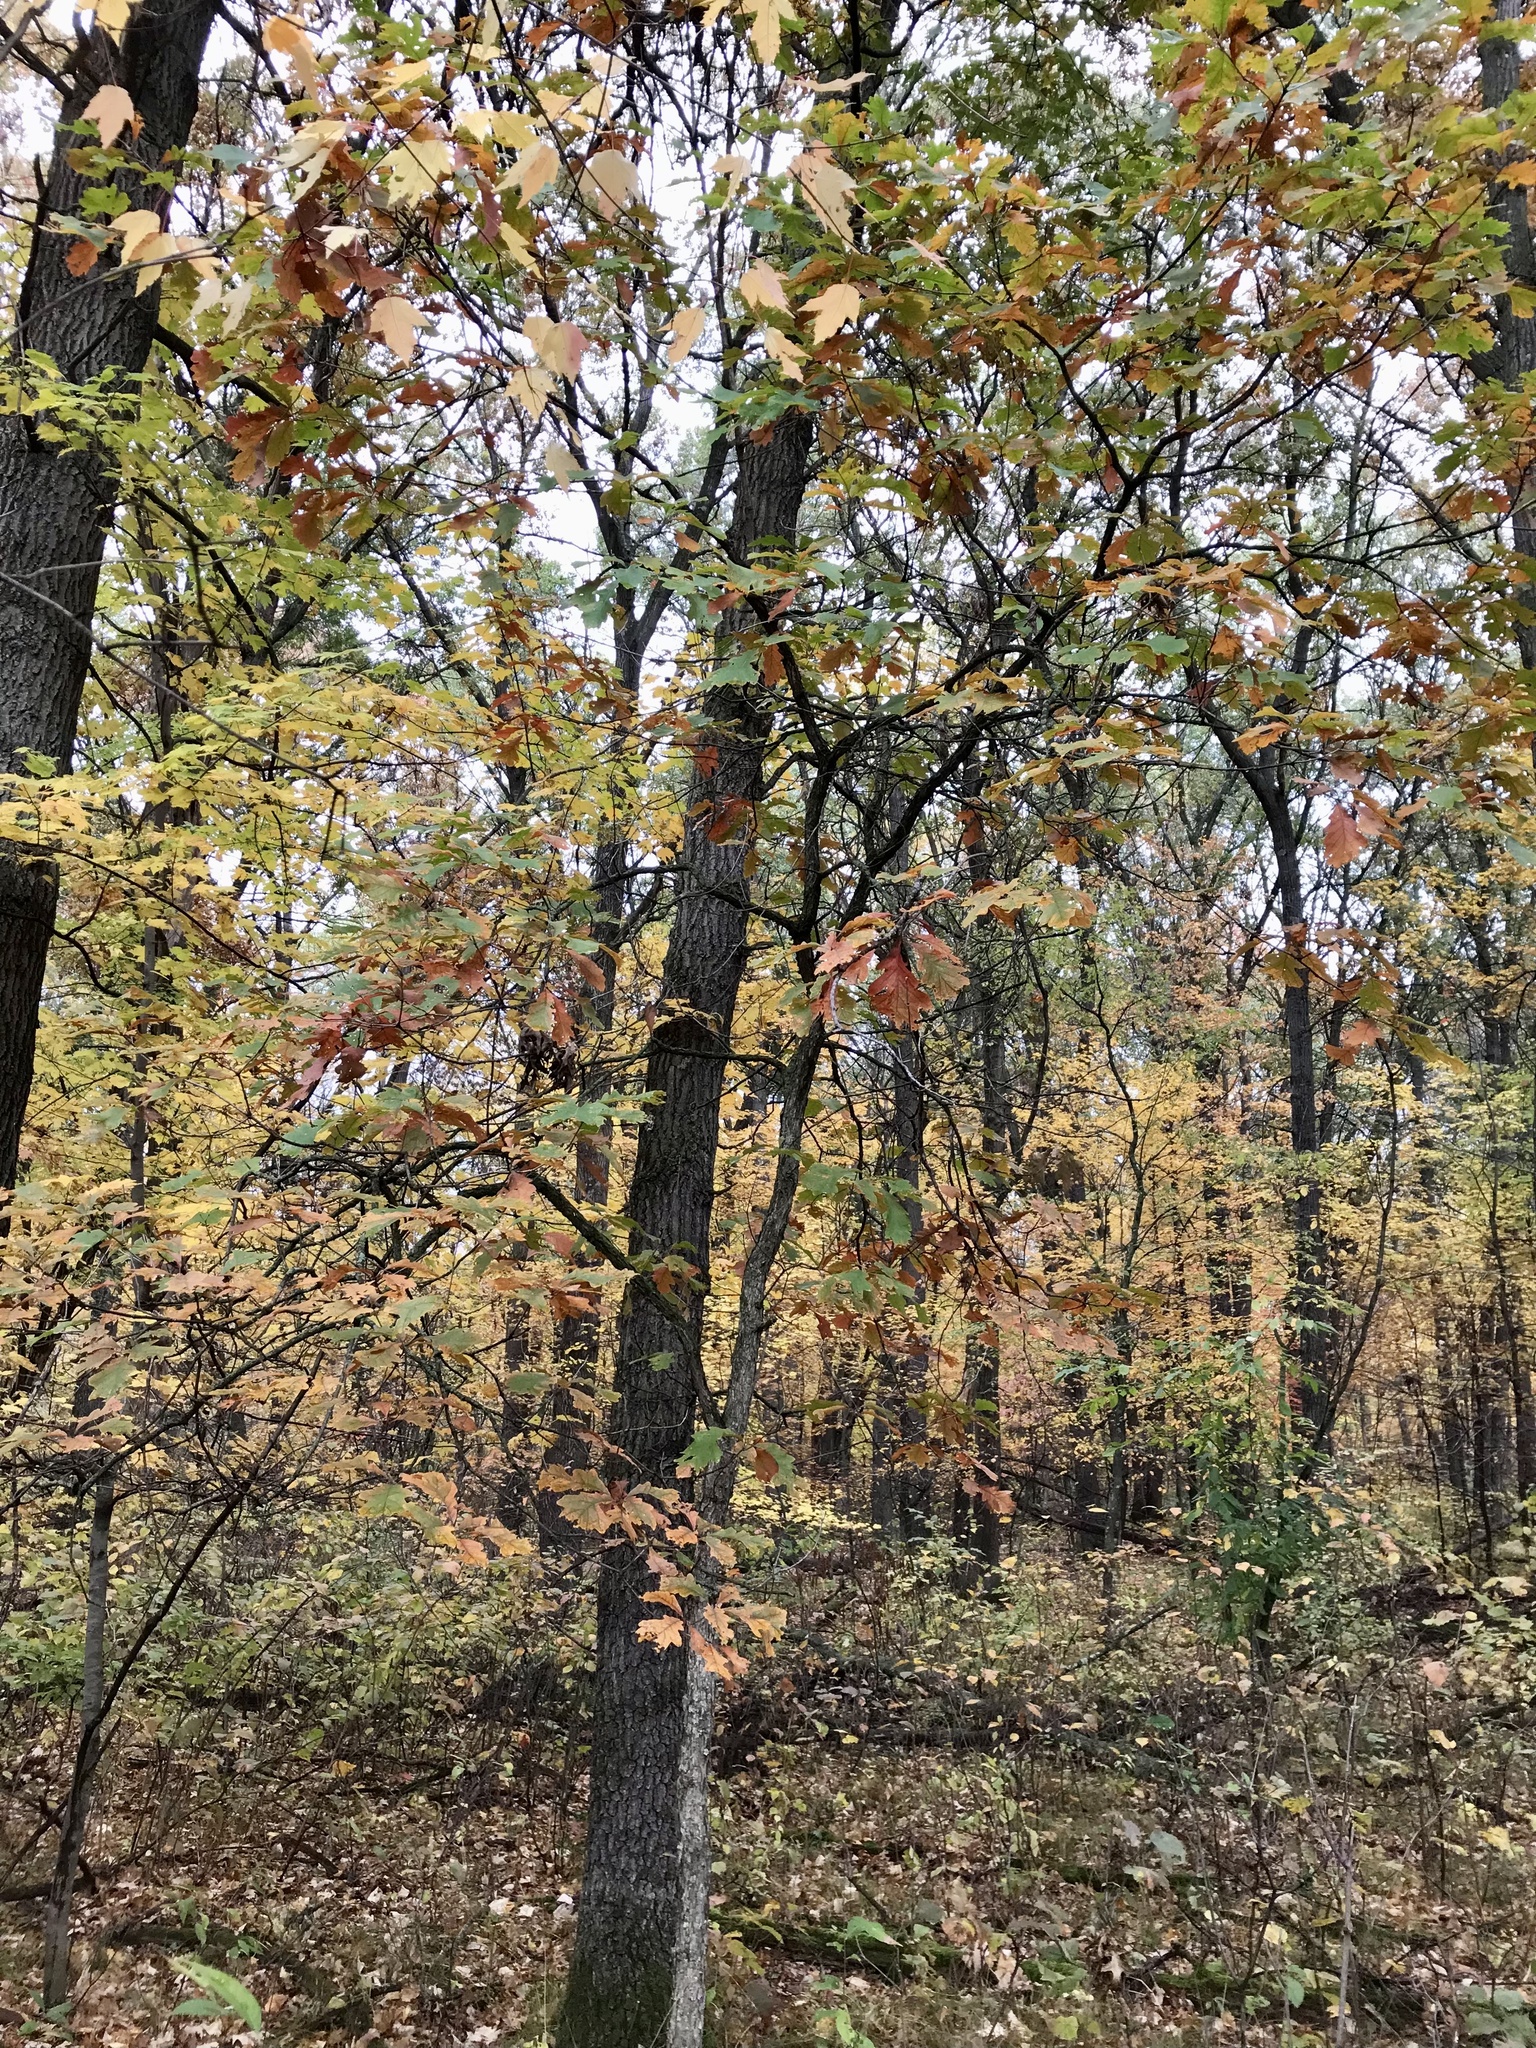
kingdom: Plantae
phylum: Tracheophyta
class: Magnoliopsida
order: Fagales
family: Fagaceae
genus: Quercus
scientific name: Quercus bebbiana
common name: Bebb's oak
